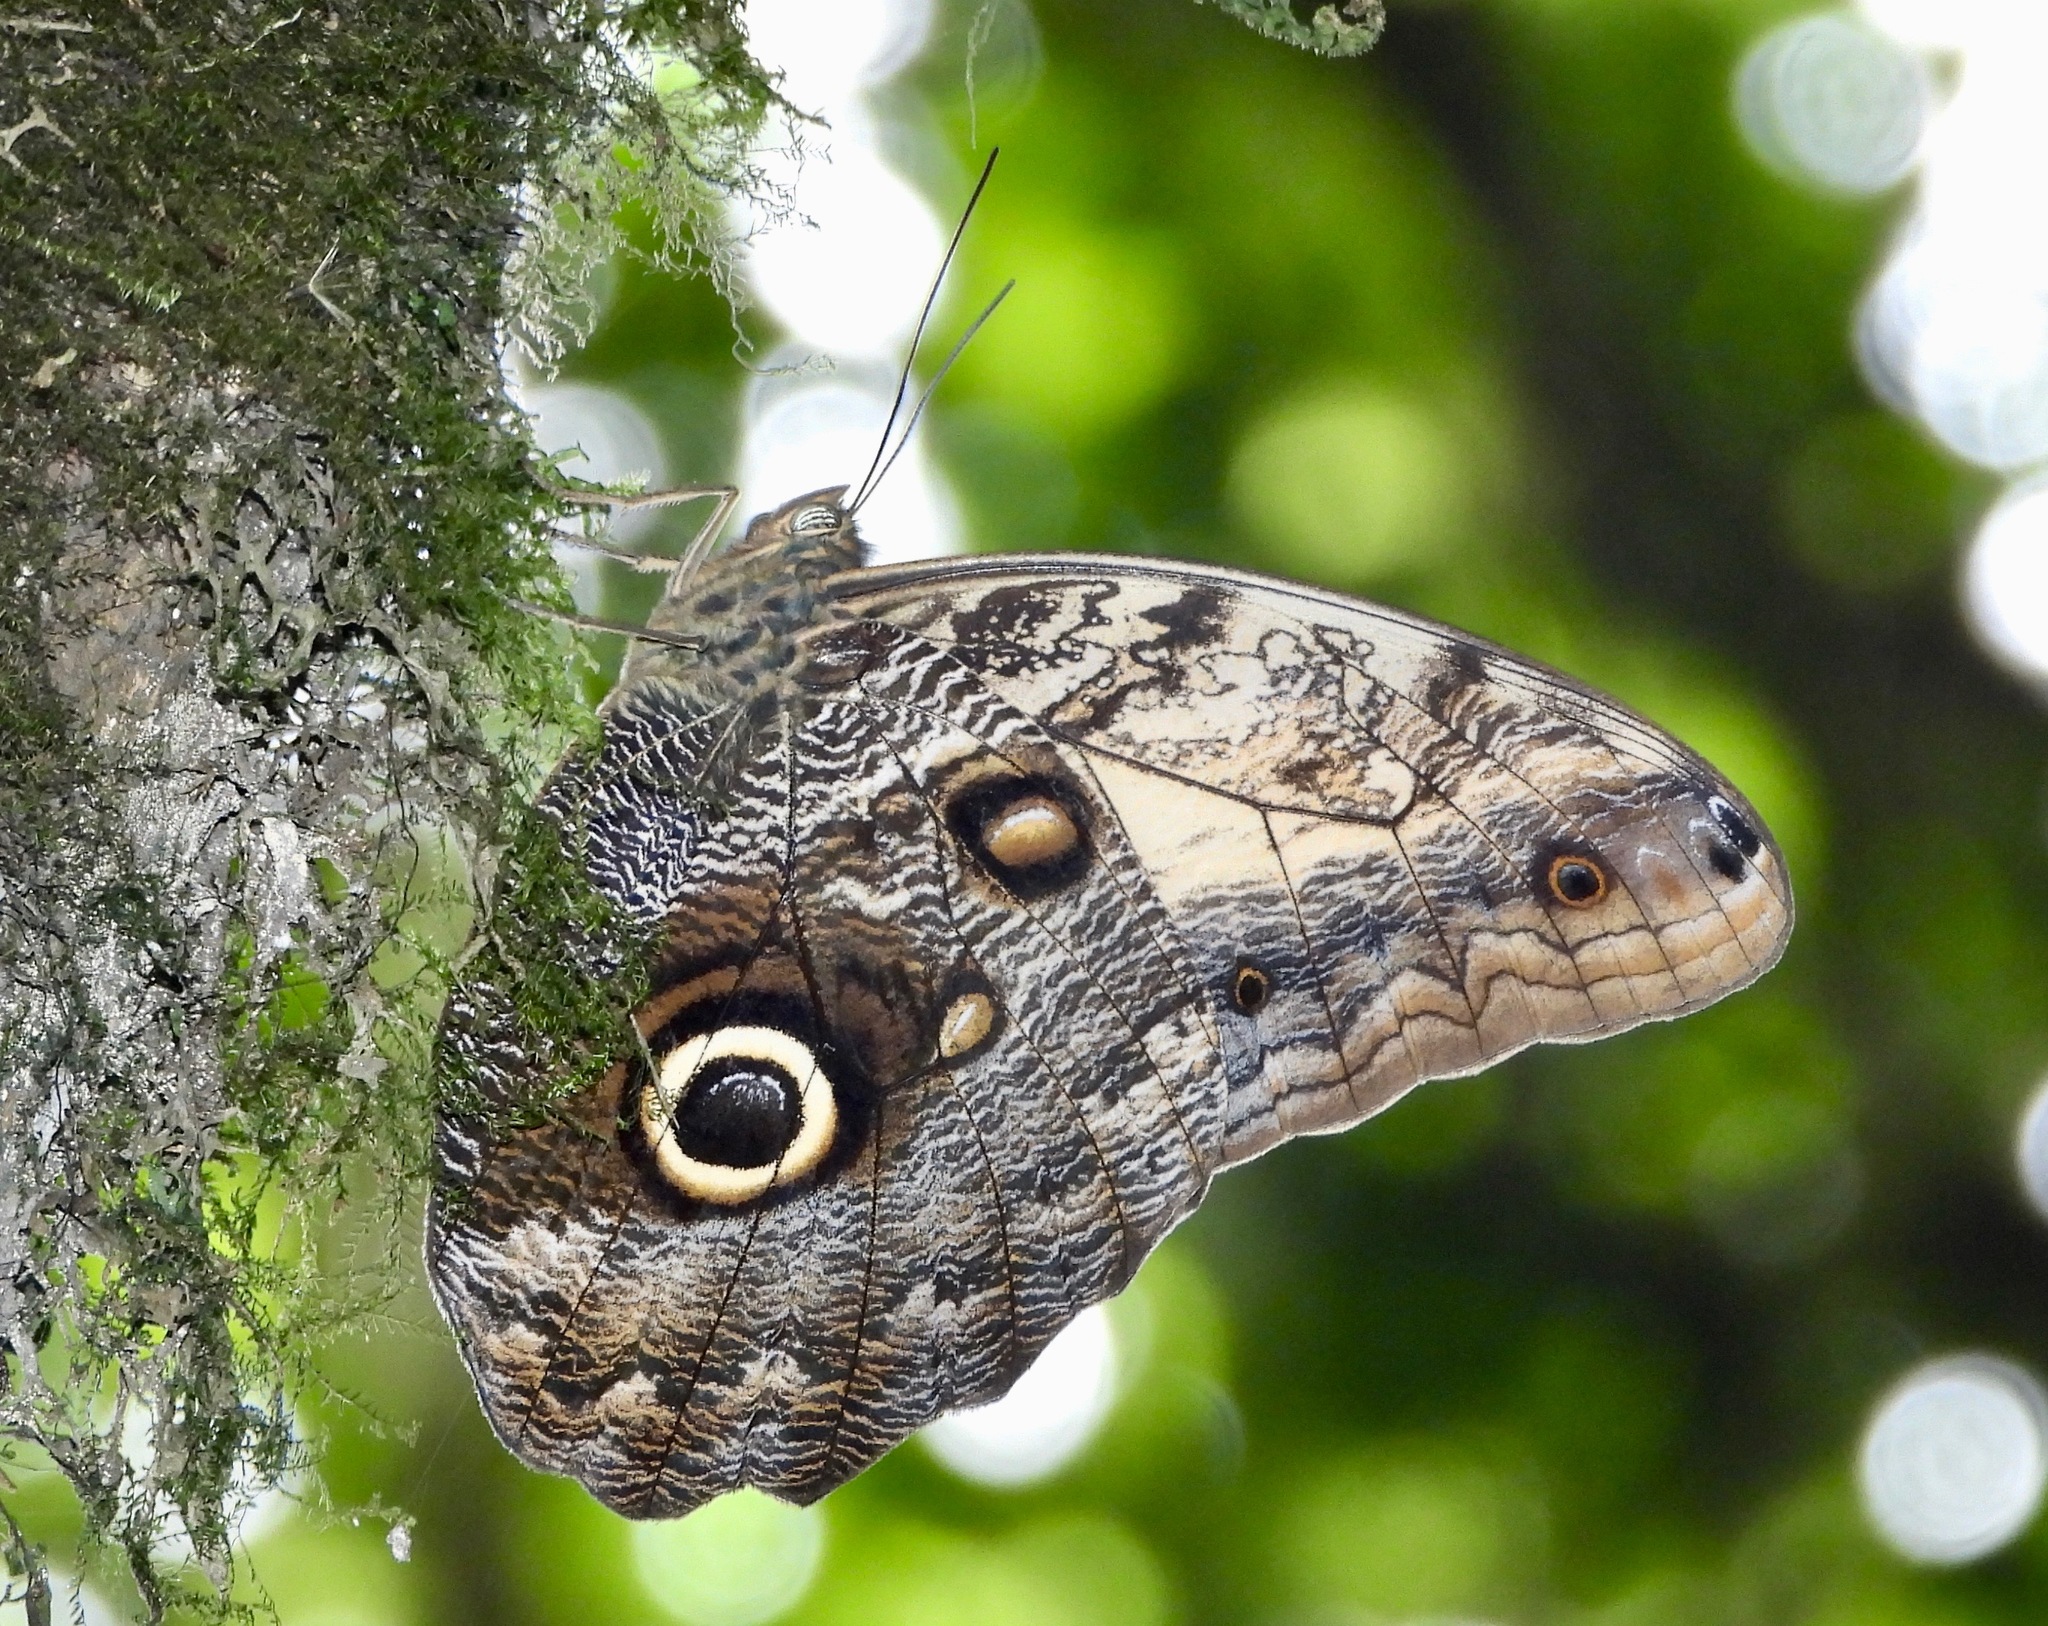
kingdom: Animalia
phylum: Arthropoda
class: Insecta
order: Lepidoptera
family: Nymphalidae
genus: Caligo
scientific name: Caligo prometheus
